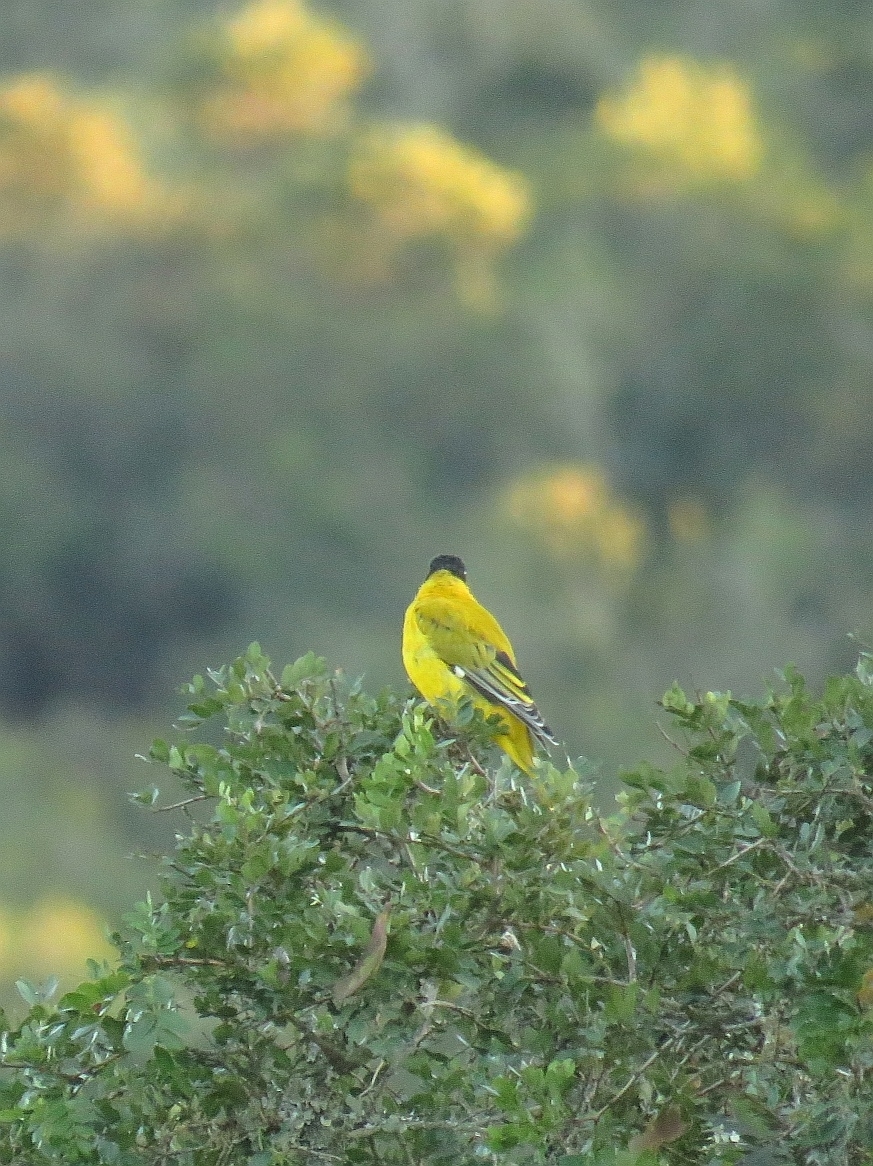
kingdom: Animalia
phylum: Chordata
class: Aves
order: Passeriformes
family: Oriolidae
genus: Oriolus
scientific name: Oriolus larvatus
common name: Black-headed oriole
